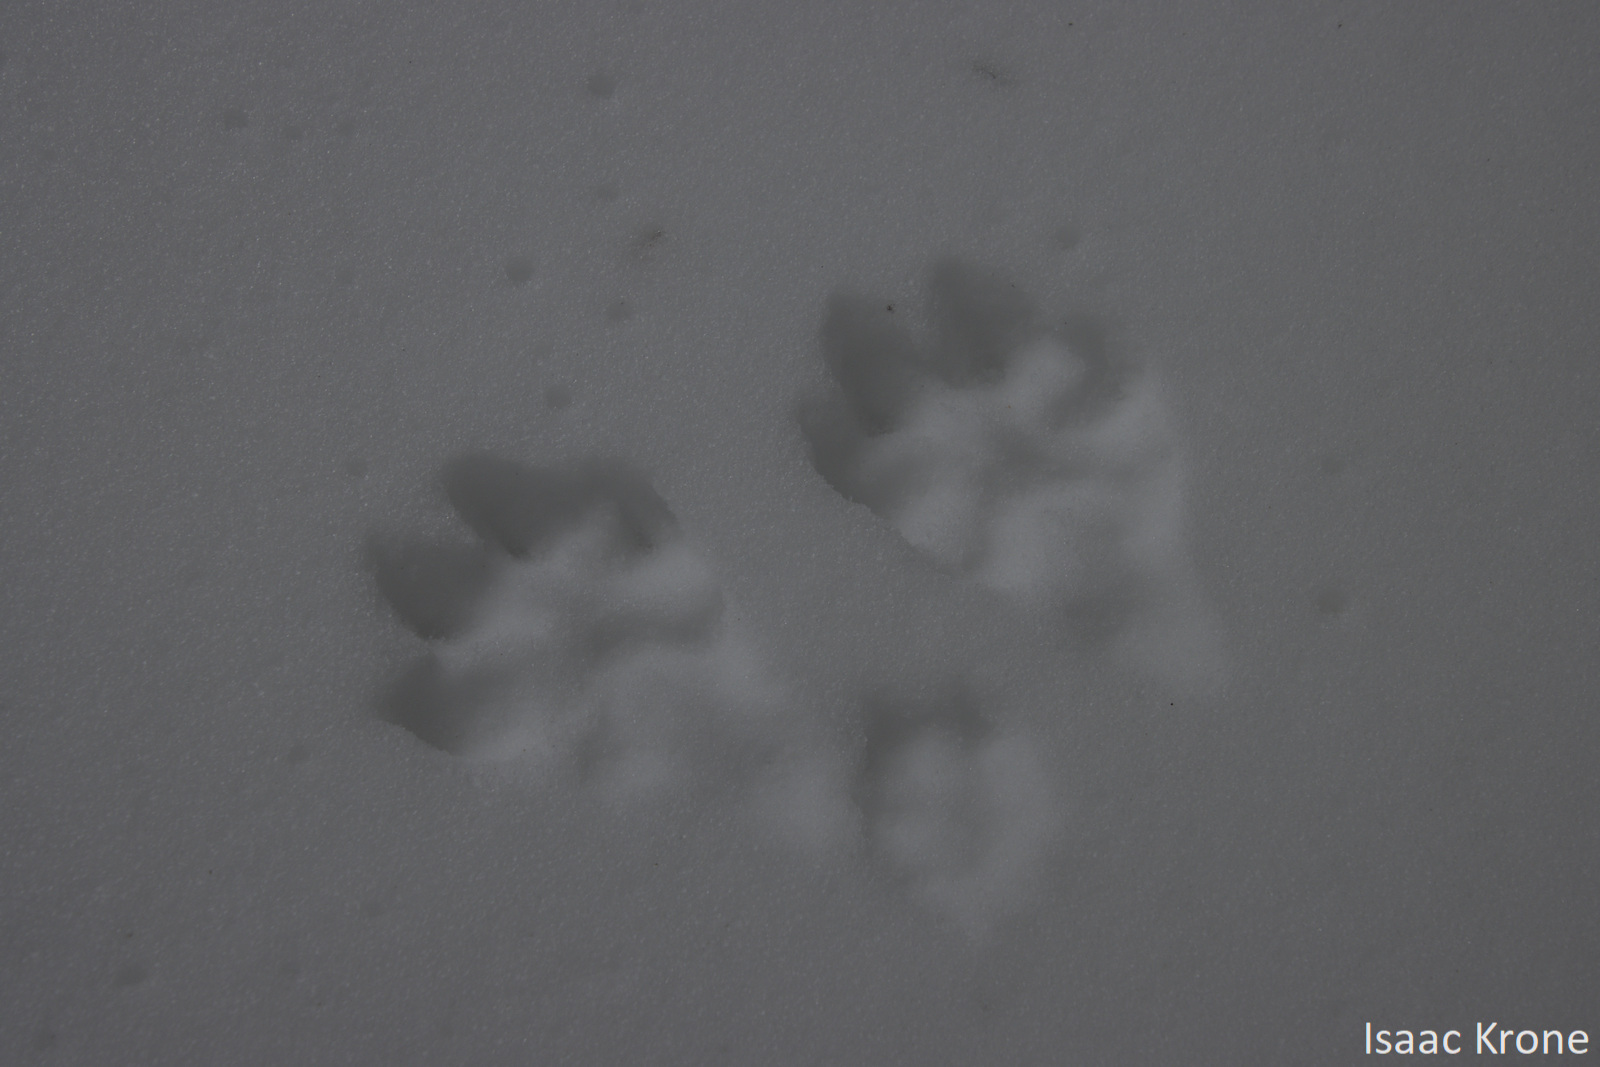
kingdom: Animalia
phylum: Chordata
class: Mammalia
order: Lagomorpha
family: Leporidae
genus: Lepus
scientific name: Lepus americanus
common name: Snowshoe hare
